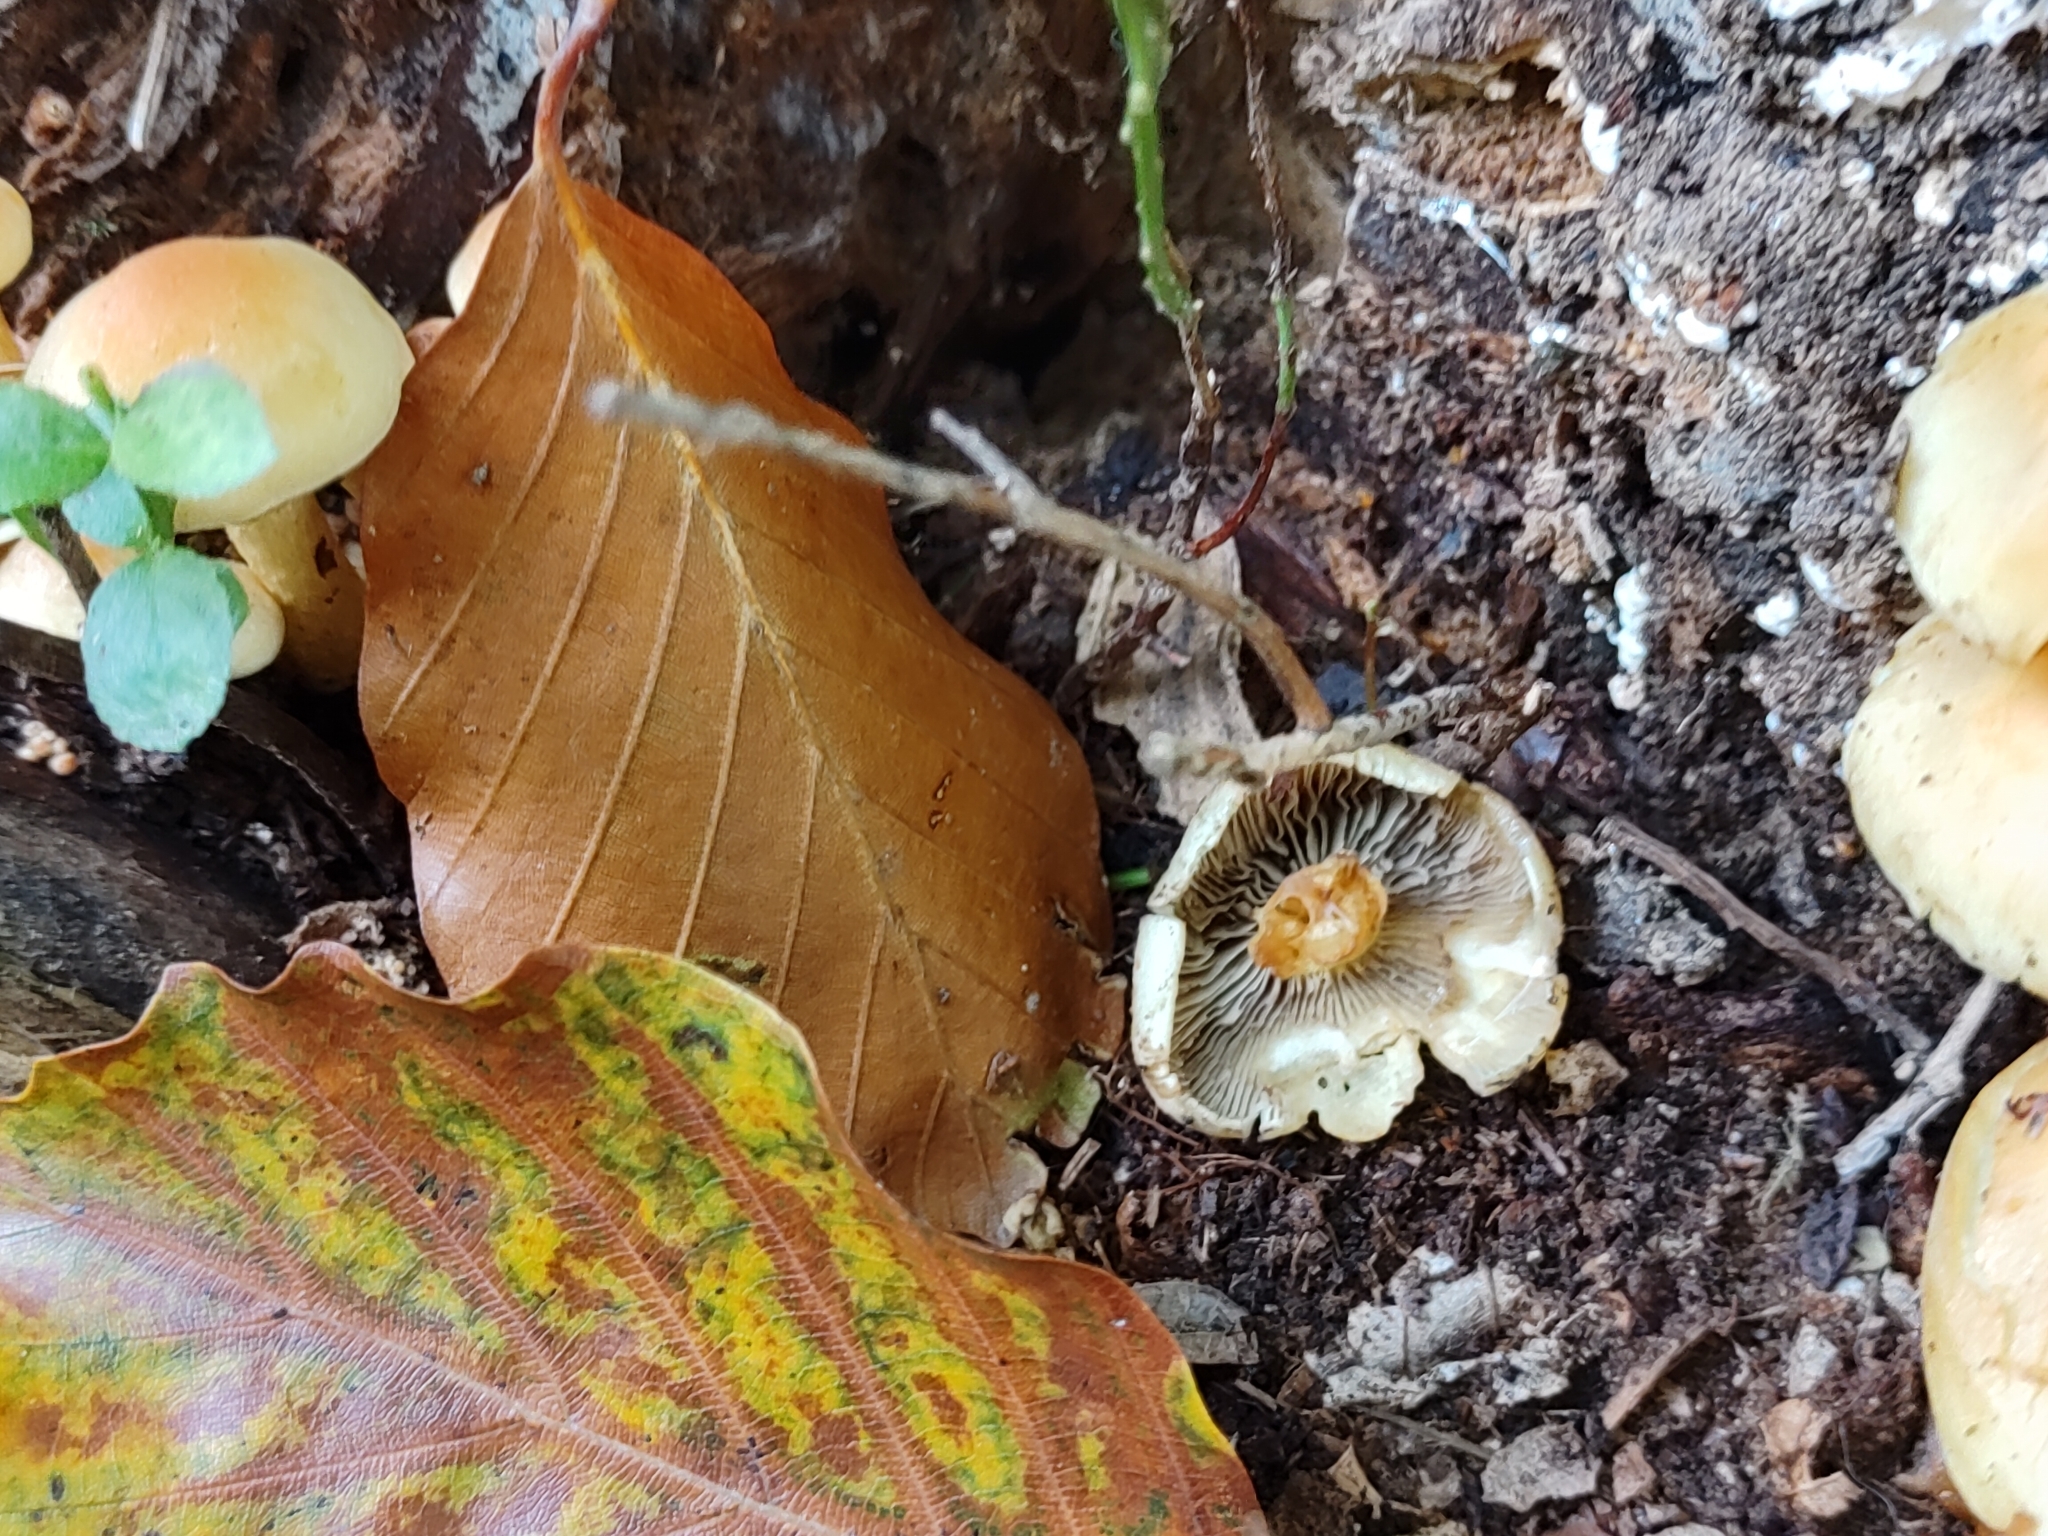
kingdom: Fungi
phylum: Basidiomycota
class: Agaricomycetes
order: Agaricales
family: Strophariaceae
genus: Hypholoma
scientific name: Hypholoma fasciculare
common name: Sulphur tuft
